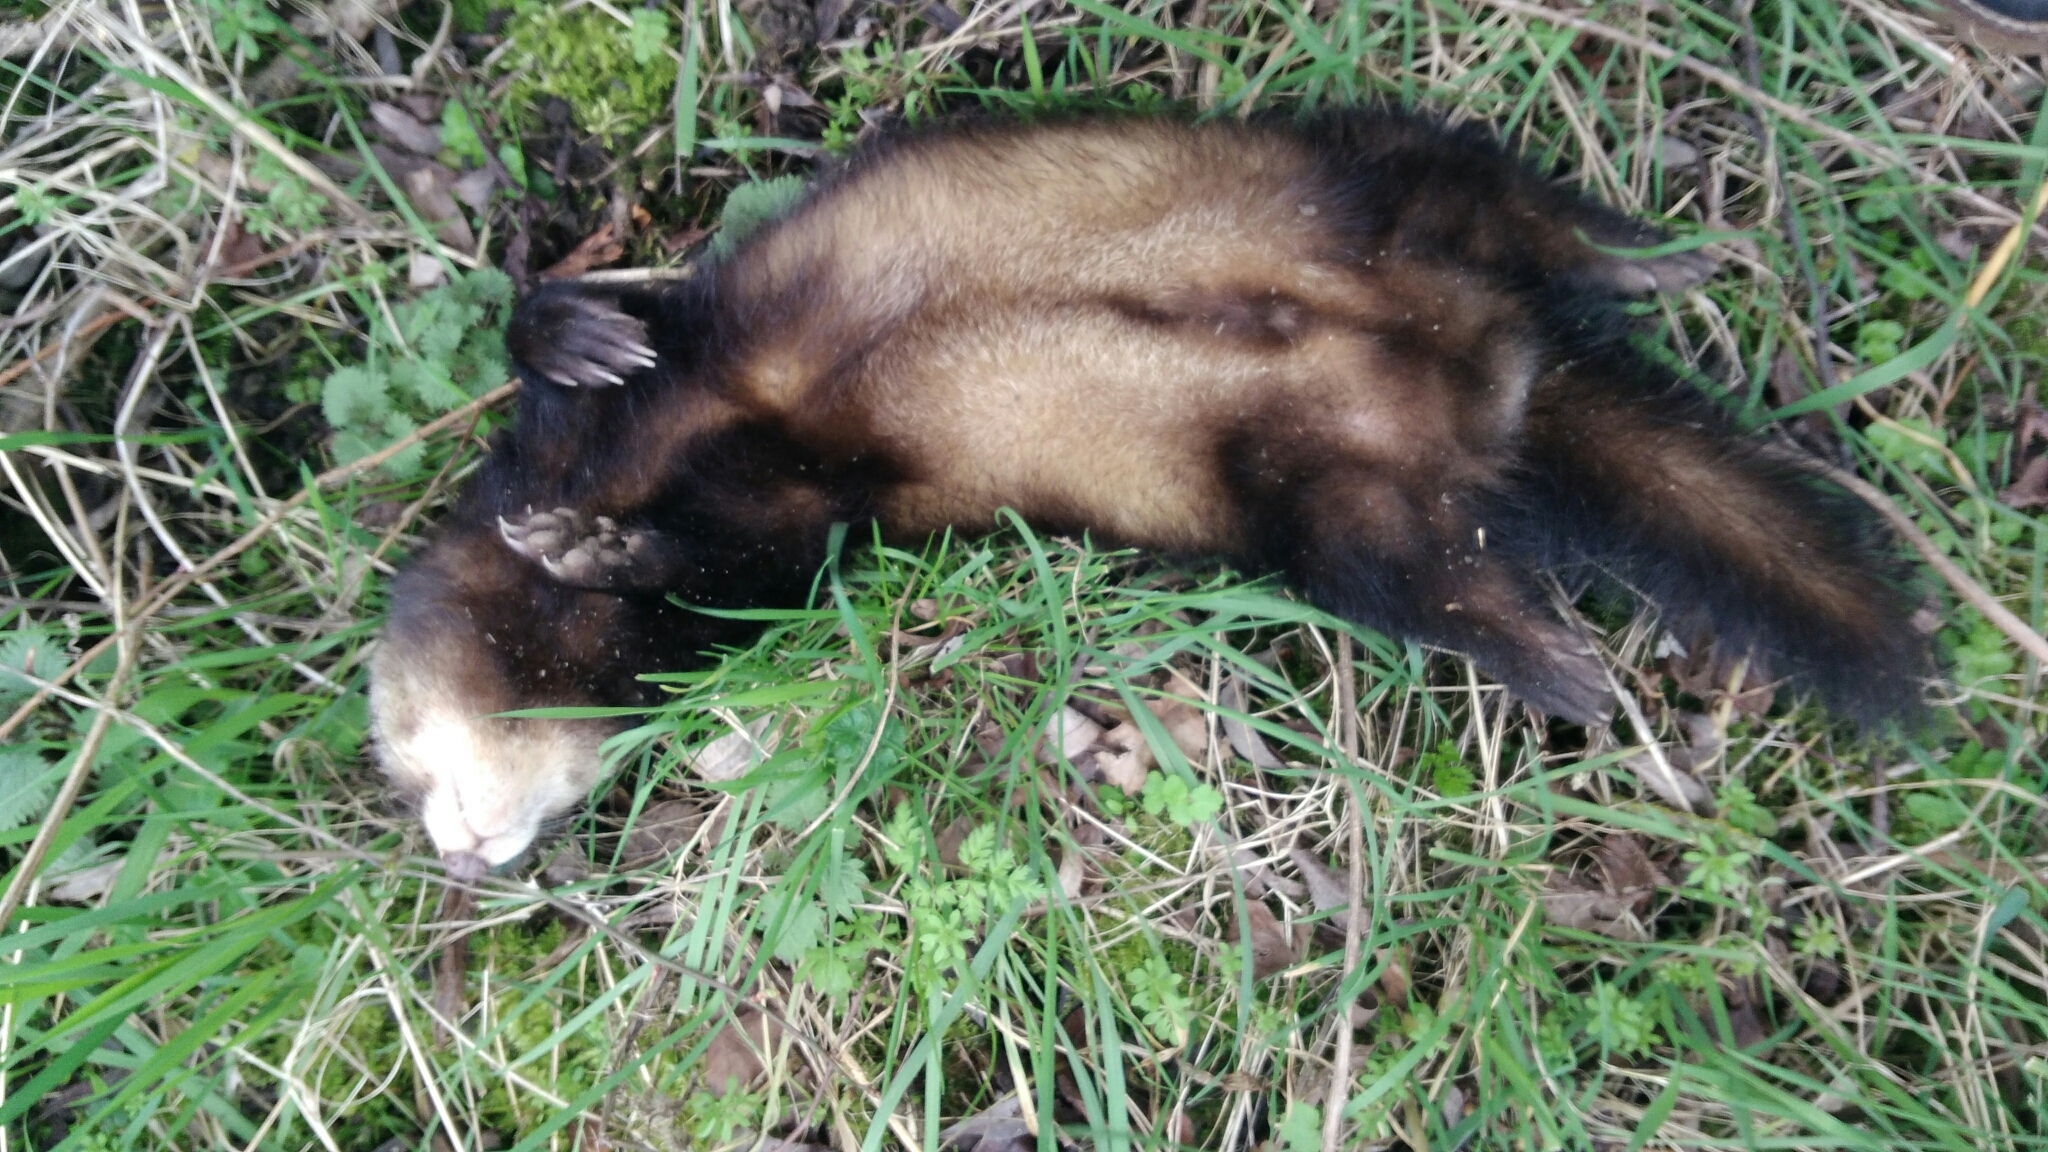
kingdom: Animalia
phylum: Chordata
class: Mammalia
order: Carnivora
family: Mustelidae
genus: Mustela
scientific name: Mustela putorius
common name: European polecat
